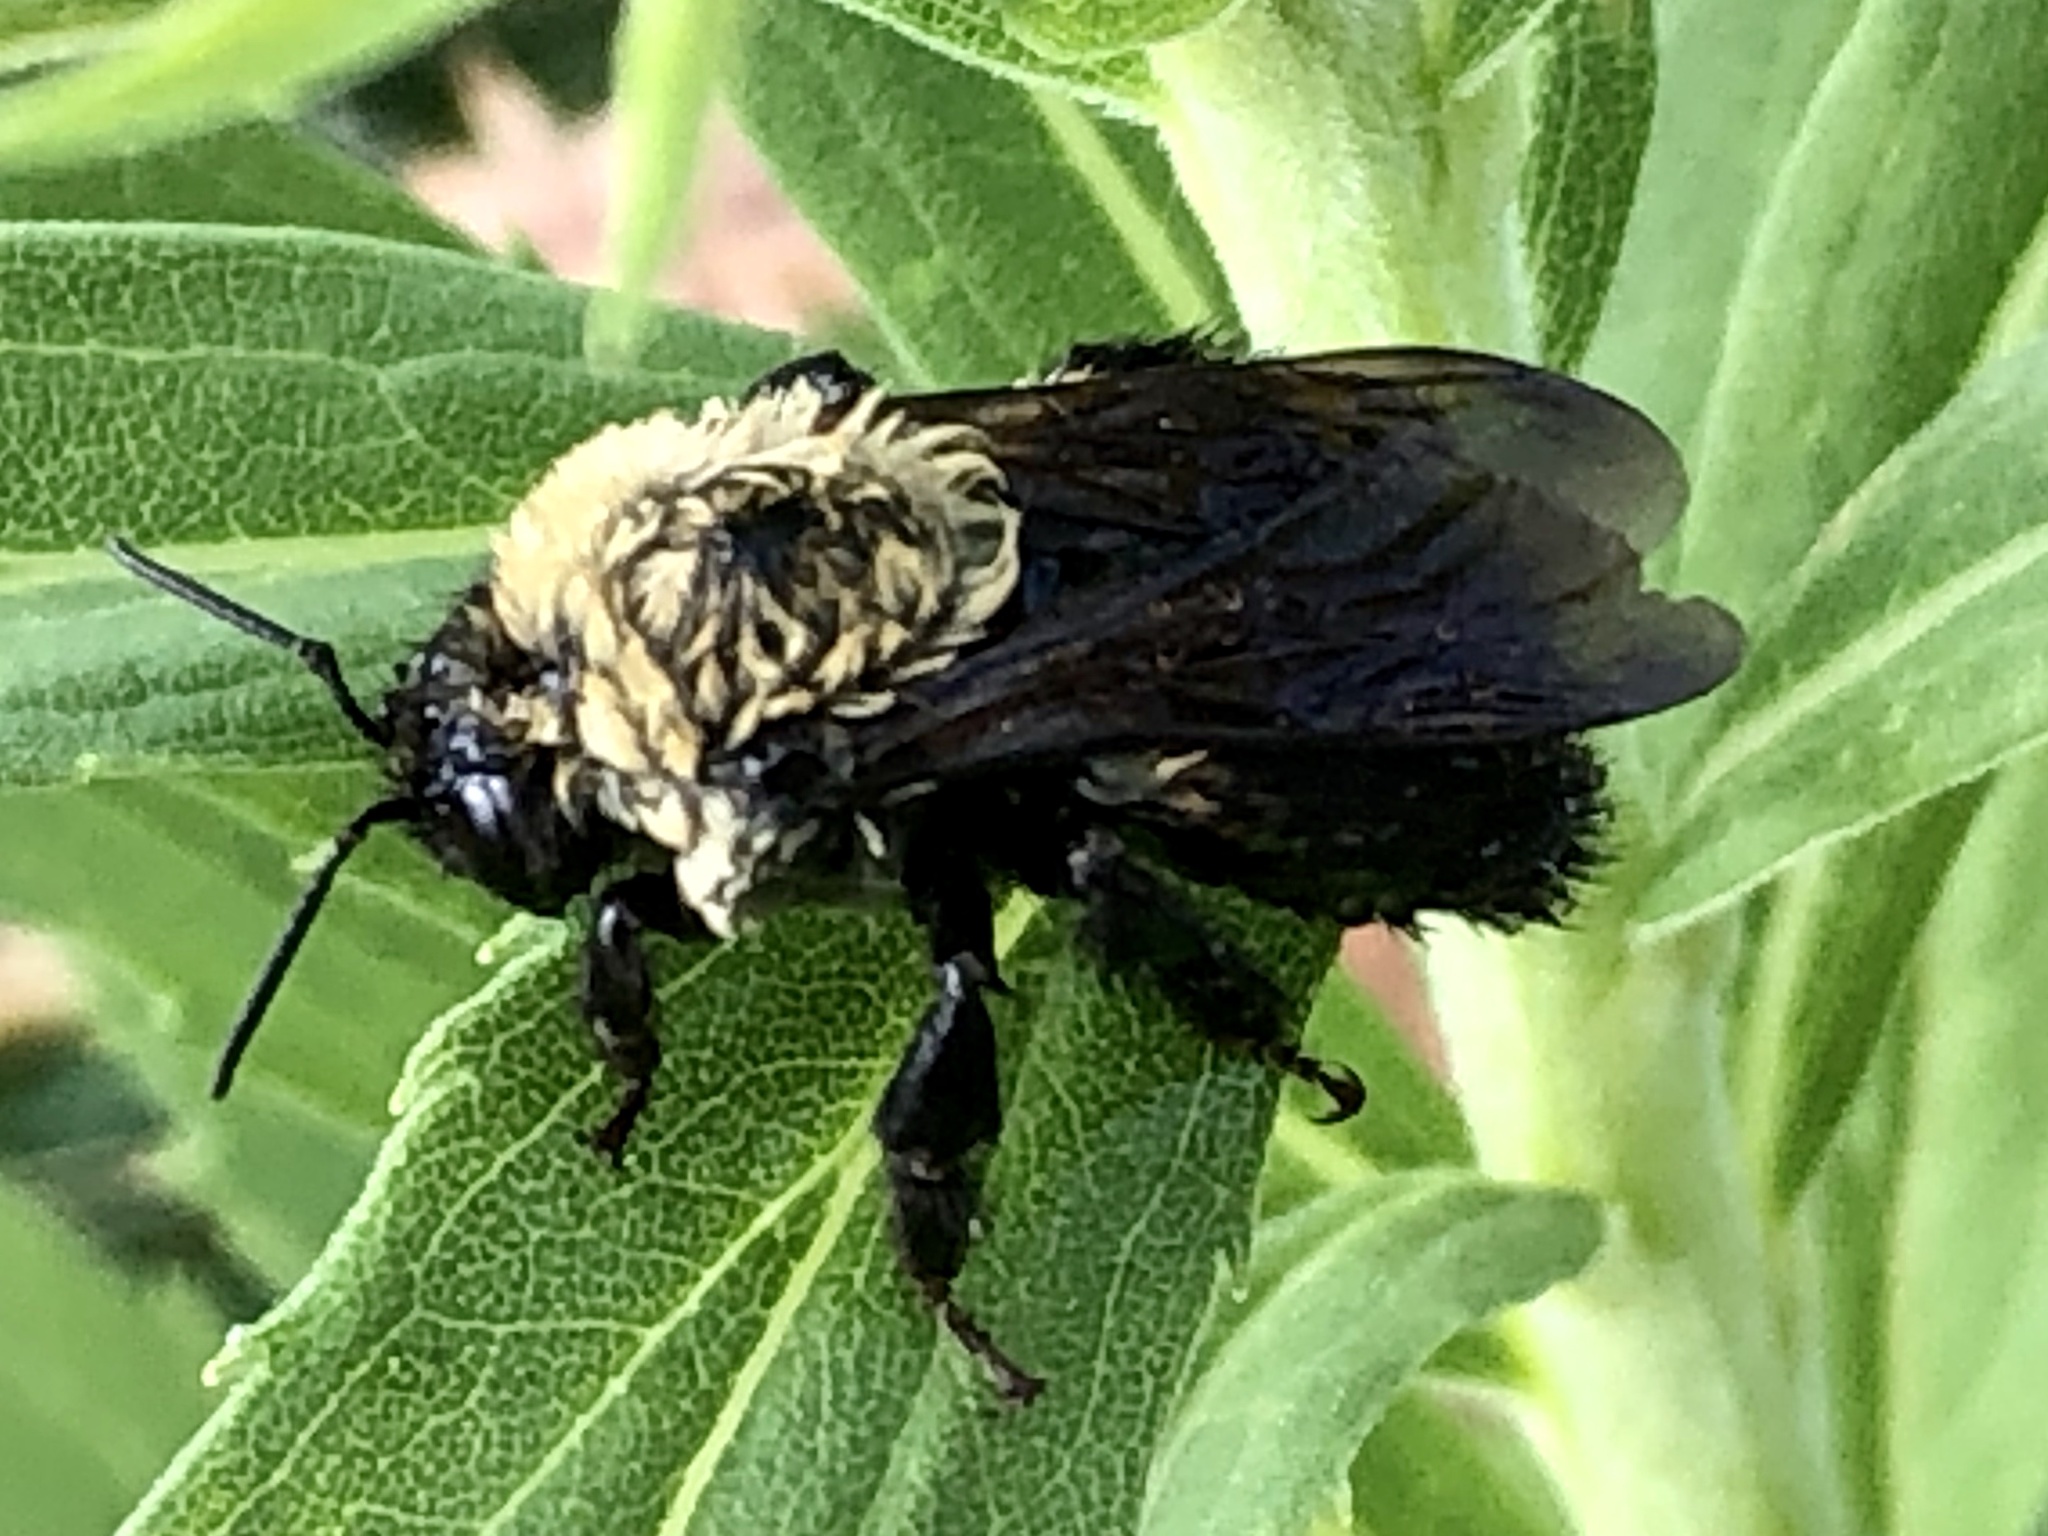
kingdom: Animalia
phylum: Arthropoda
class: Insecta
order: Hymenoptera
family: Apidae
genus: Bombus
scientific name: Bombus griseocollis
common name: Brown-belted bumble bee
